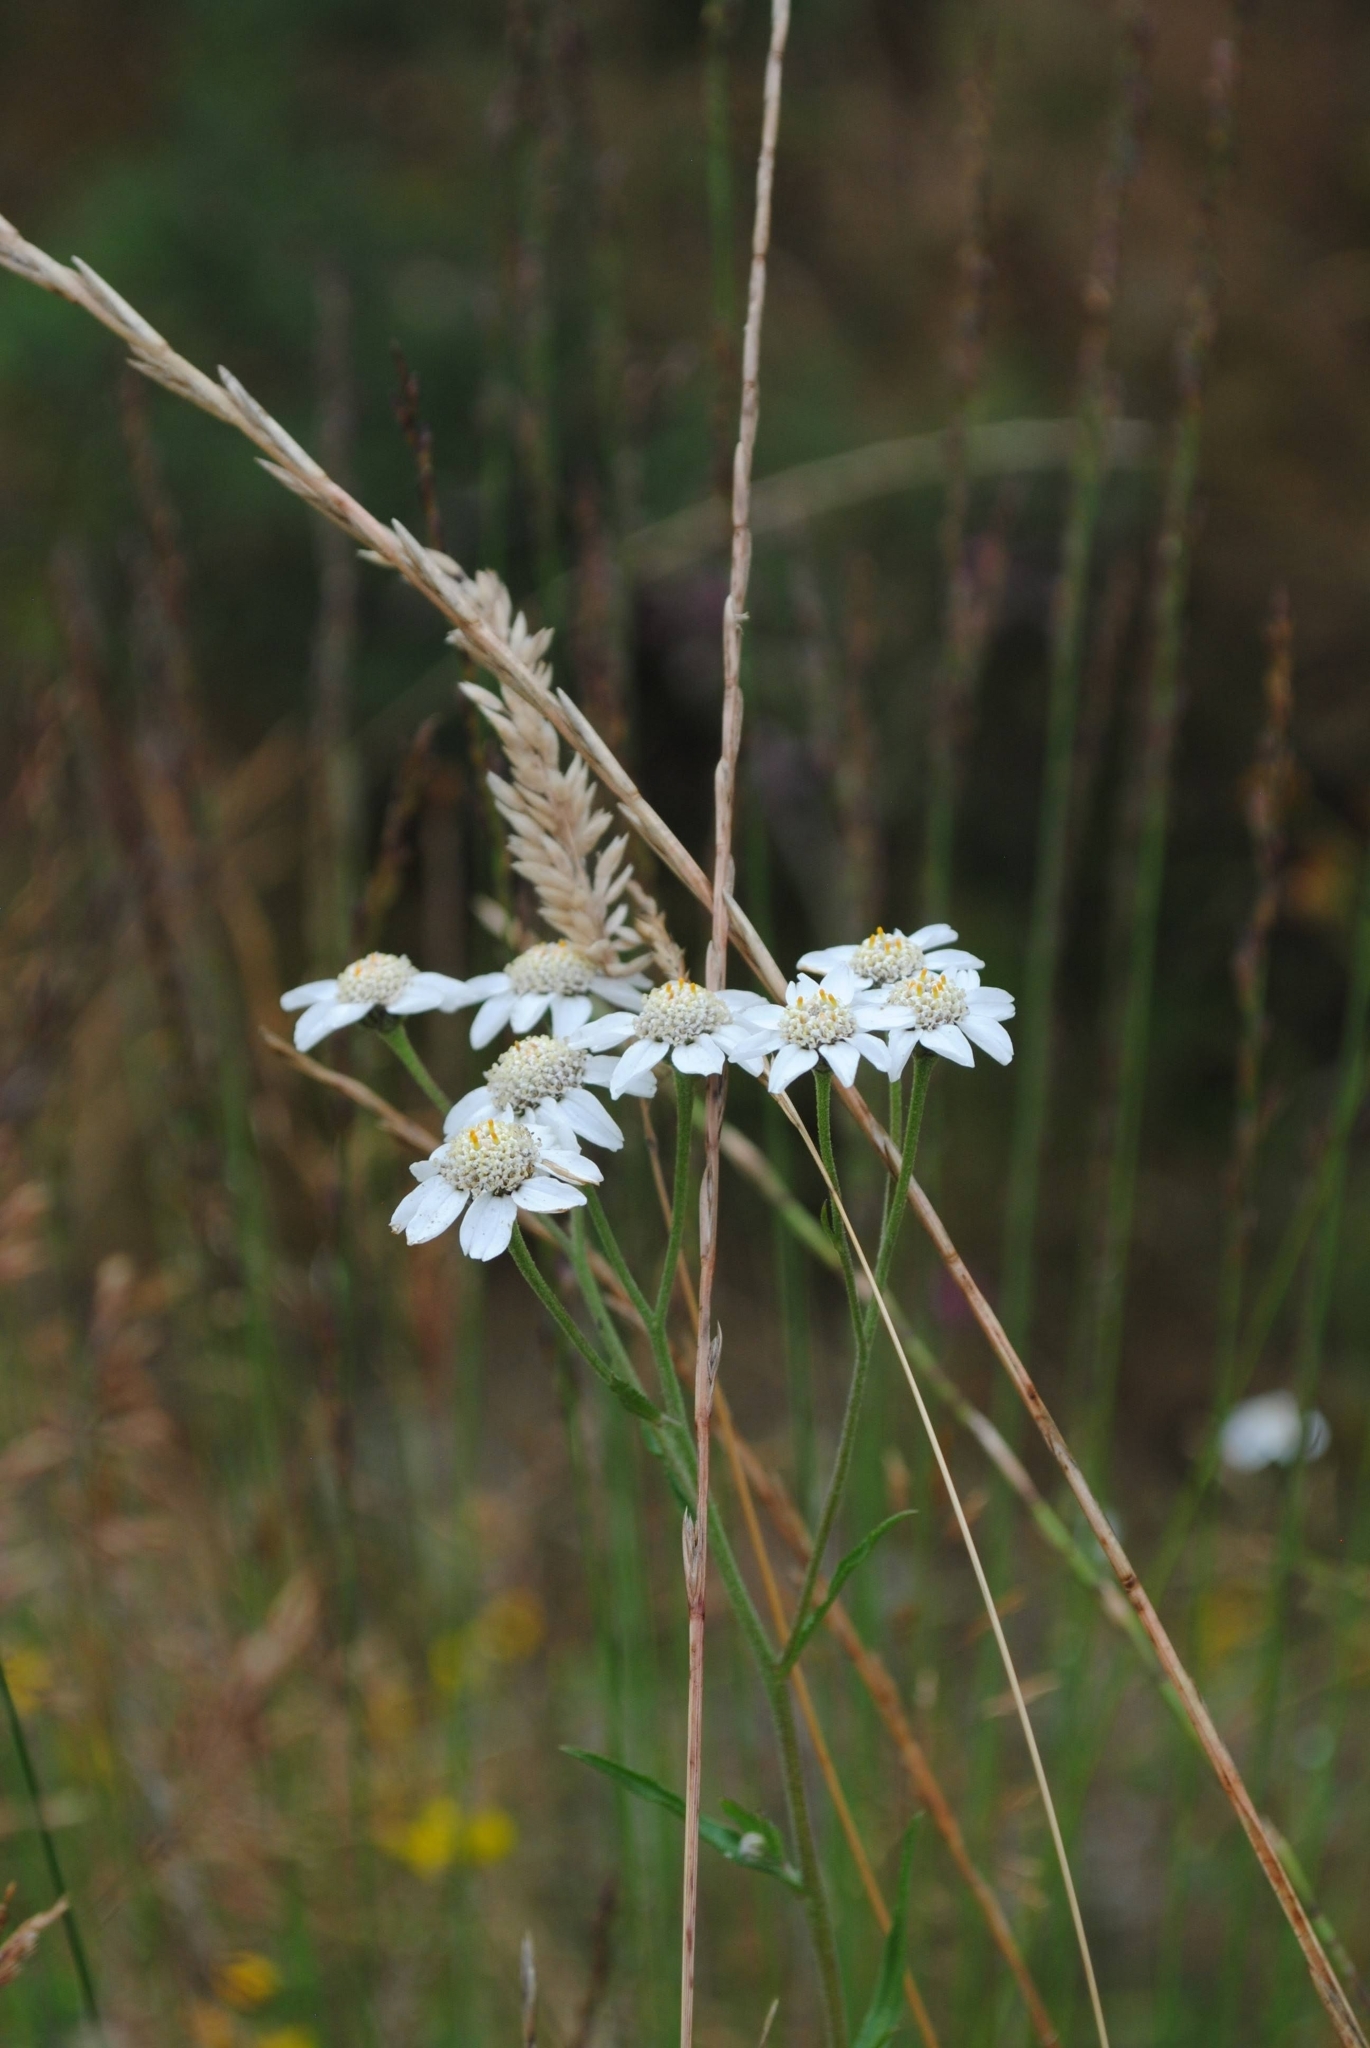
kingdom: Plantae
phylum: Tracheophyta
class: Magnoliopsida
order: Asterales
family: Asteraceae
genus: Achillea
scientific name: Achillea ptarmica
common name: Sneezeweed
